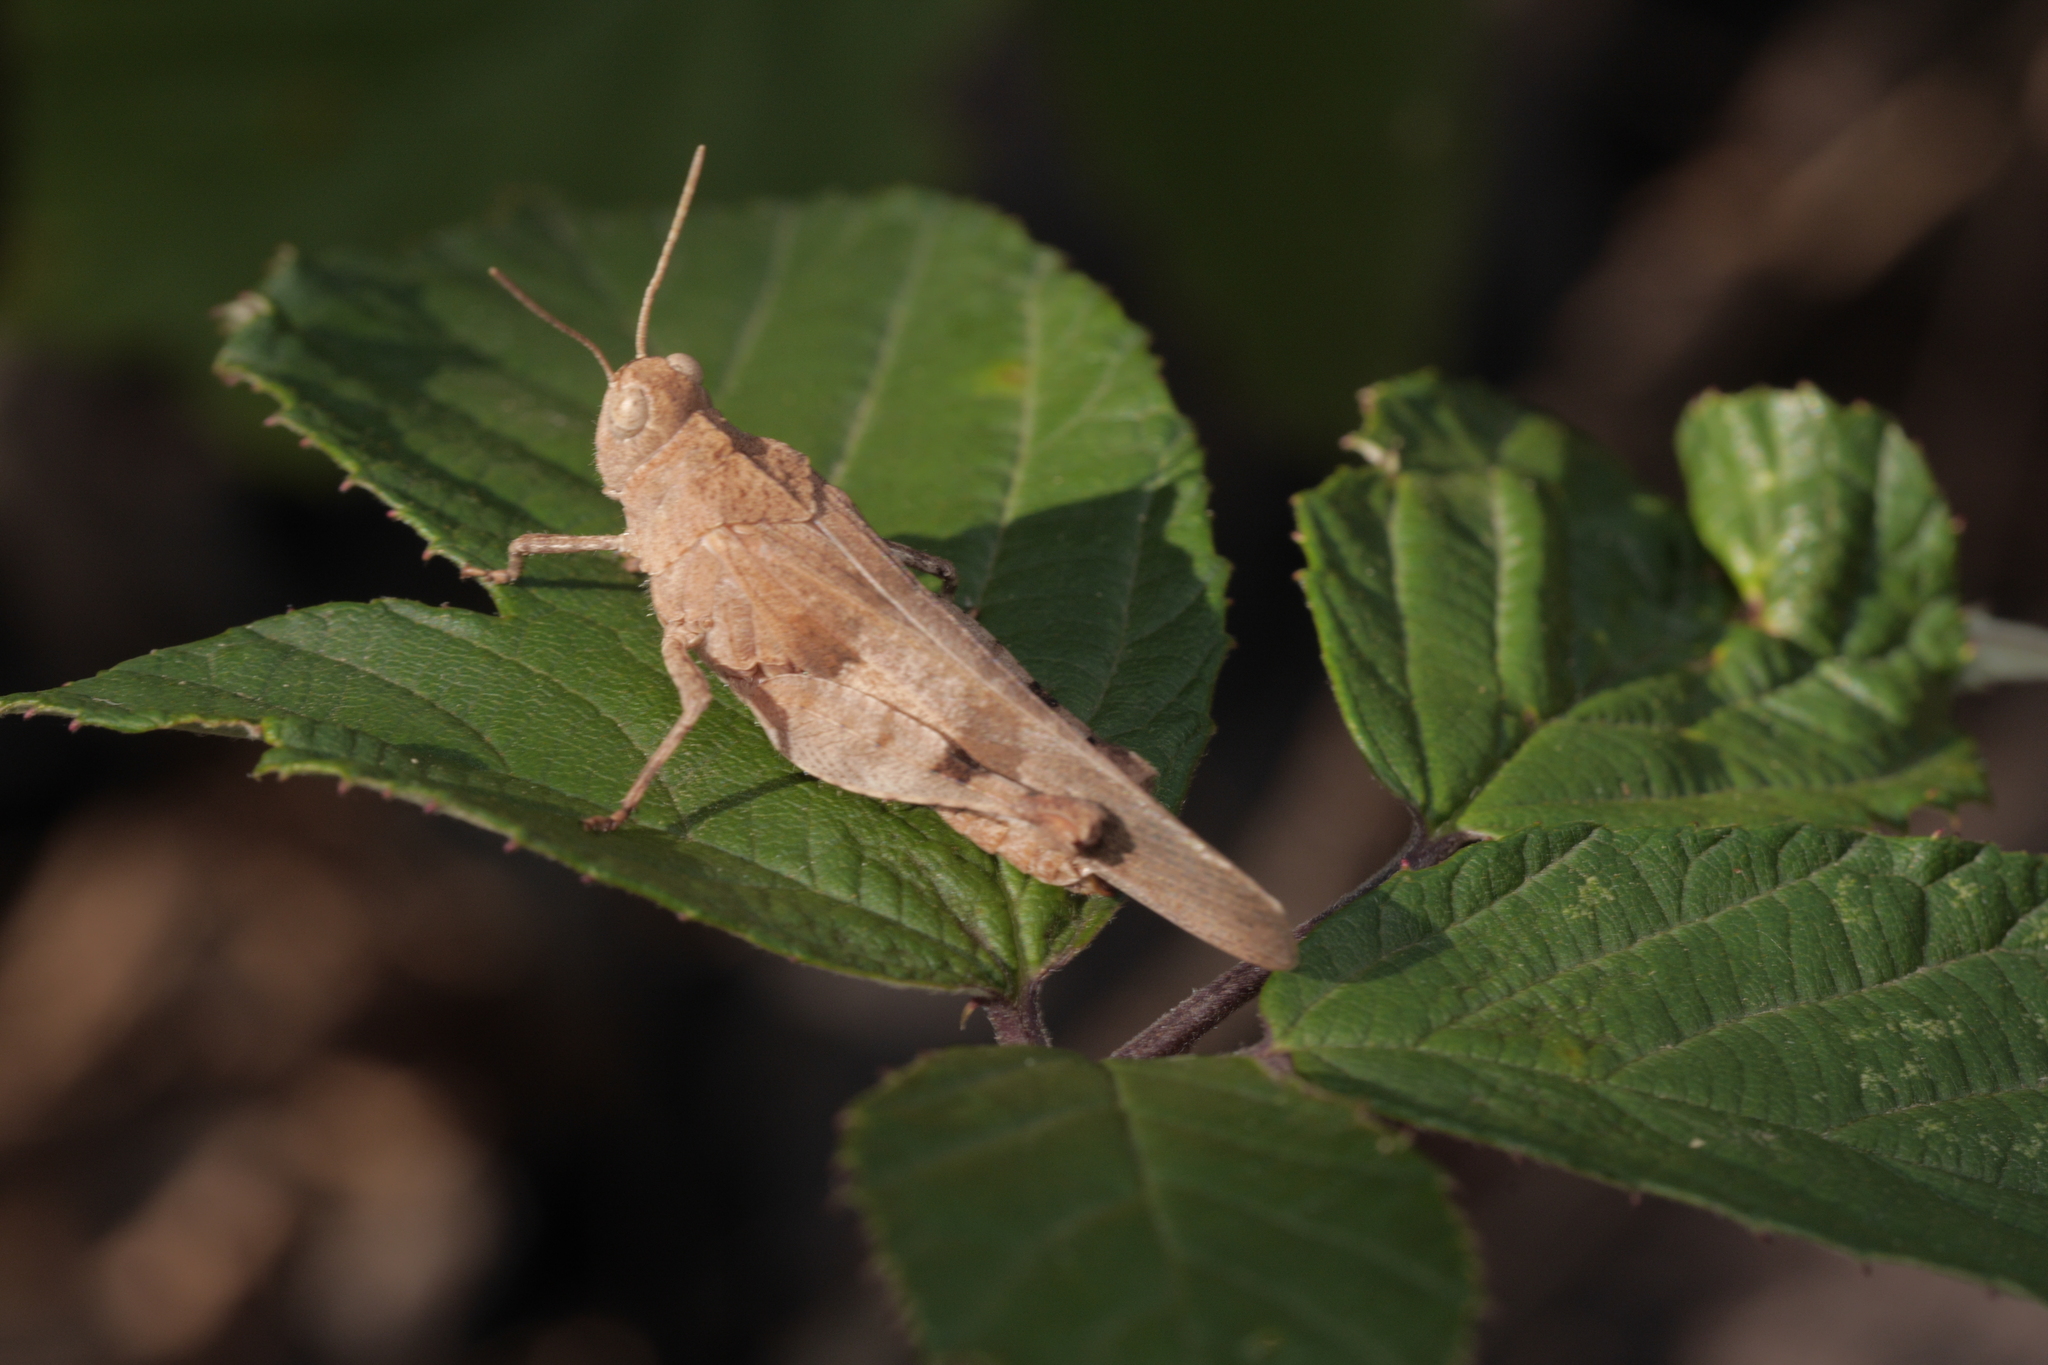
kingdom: Animalia
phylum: Arthropoda
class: Insecta
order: Orthoptera
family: Acrididae
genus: Oedipoda
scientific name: Oedipoda caerulescens
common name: Blue-winged grasshopper
